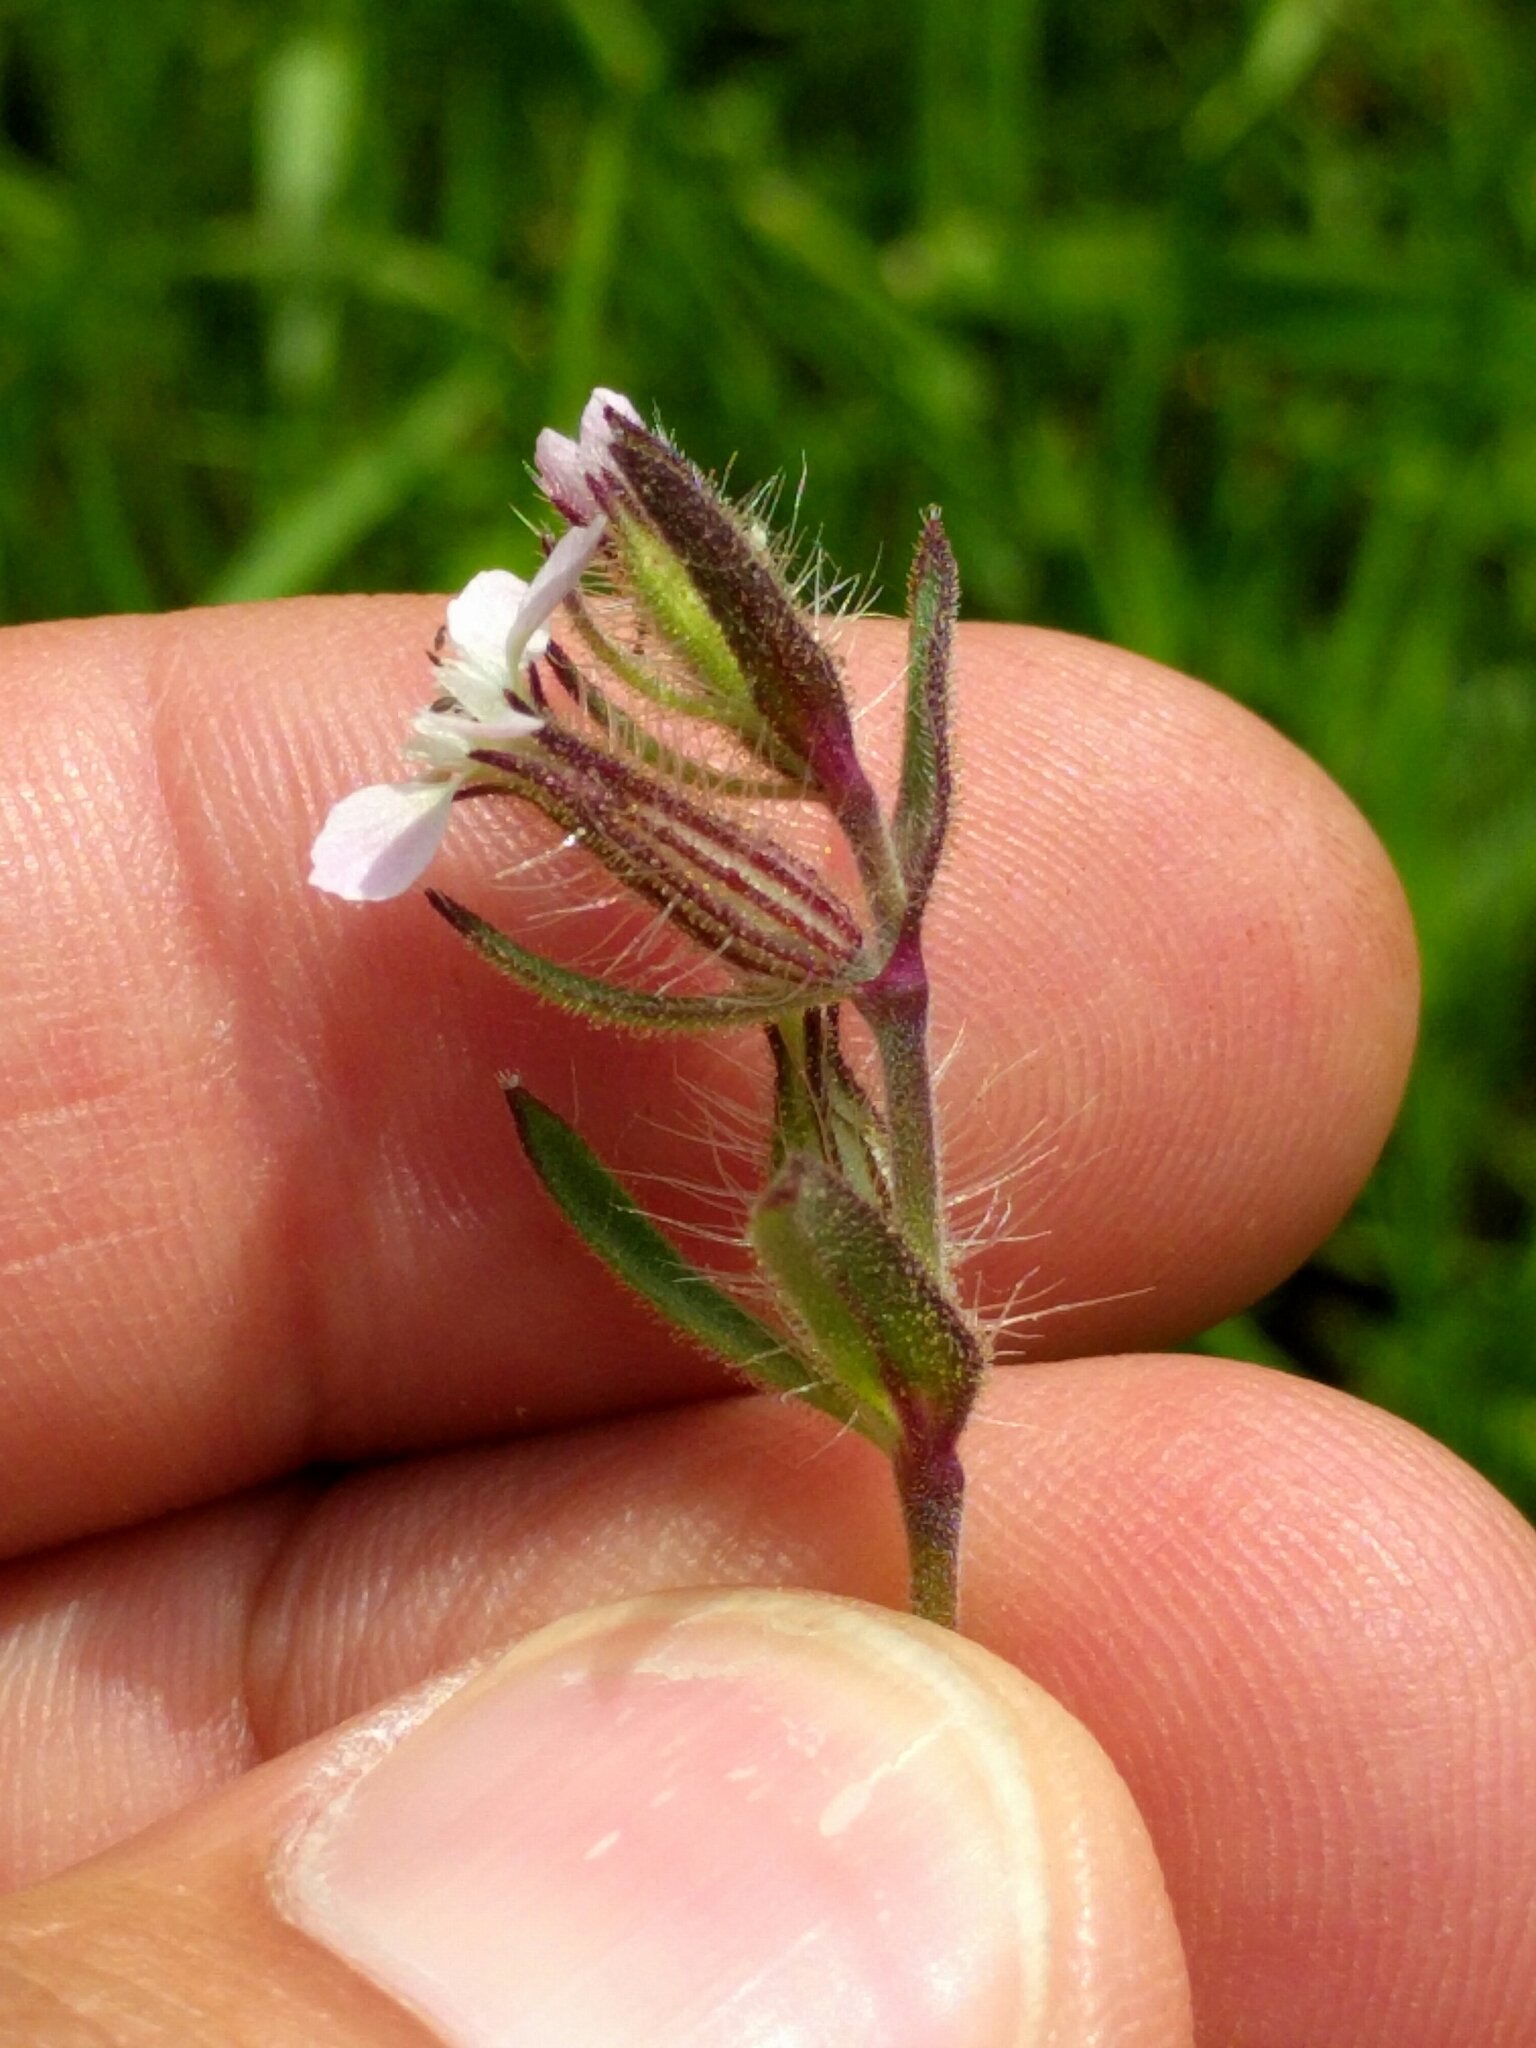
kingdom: Plantae
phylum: Tracheophyta
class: Magnoliopsida
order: Caryophyllales
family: Caryophyllaceae
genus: Silene
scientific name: Silene gallica
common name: Small-flowered catchfly
